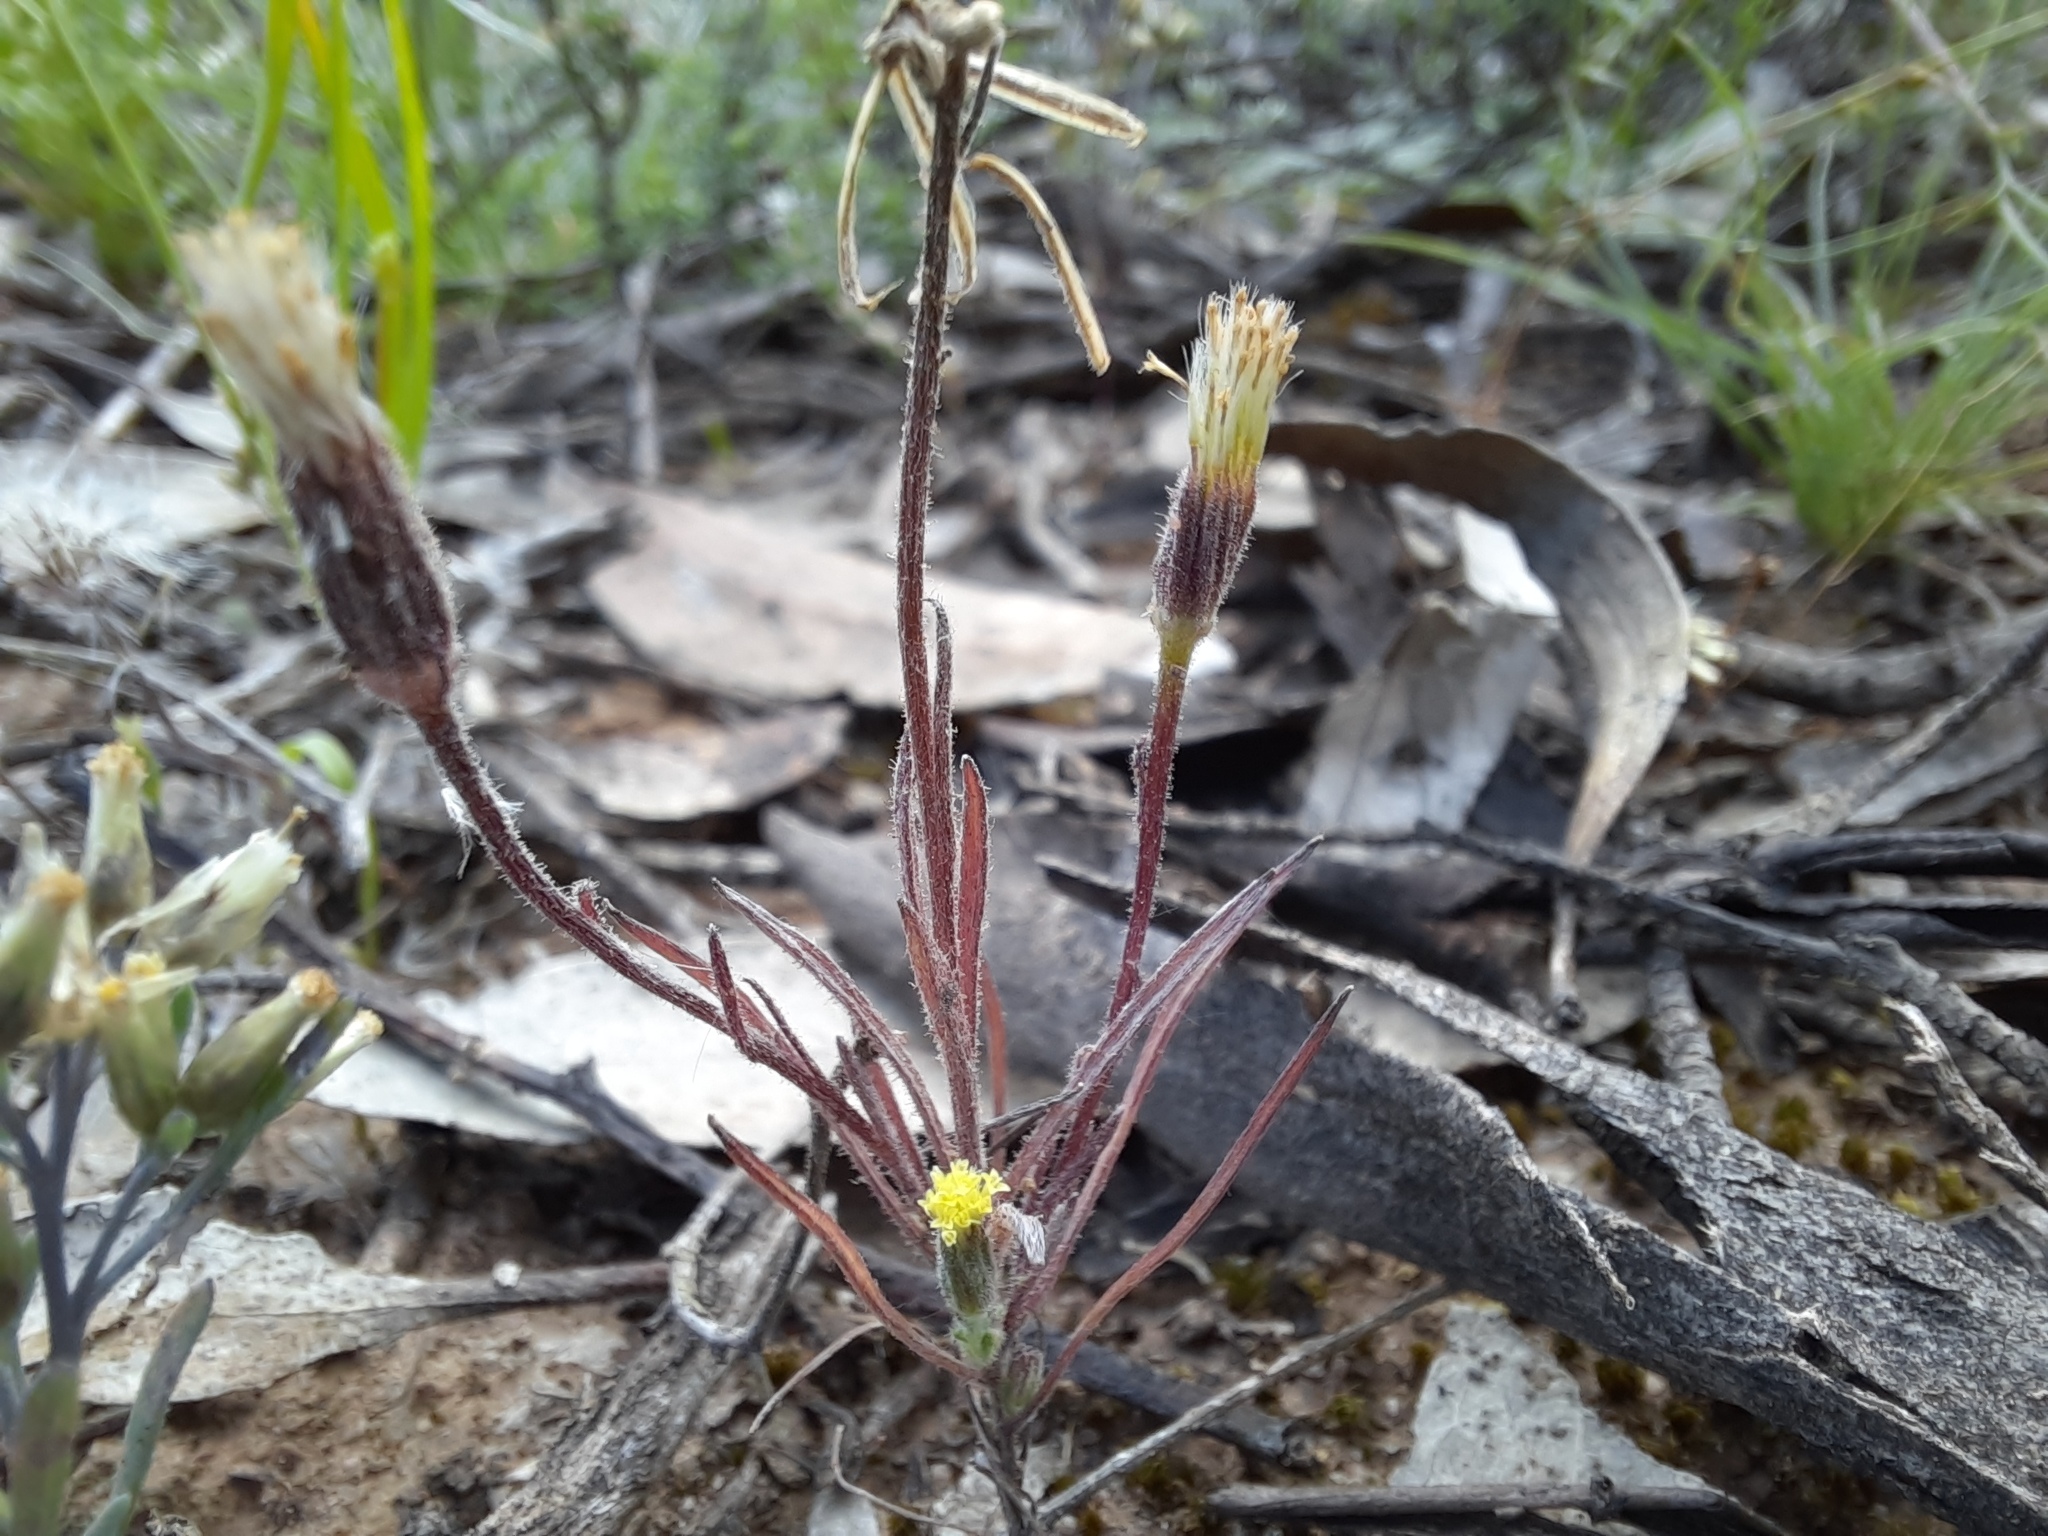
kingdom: Plantae
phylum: Tracheophyta
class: Magnoliopsida
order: Asterales
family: Asteraceae
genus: Millotia
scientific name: Millotia tenuifolia
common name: Soft millotia
